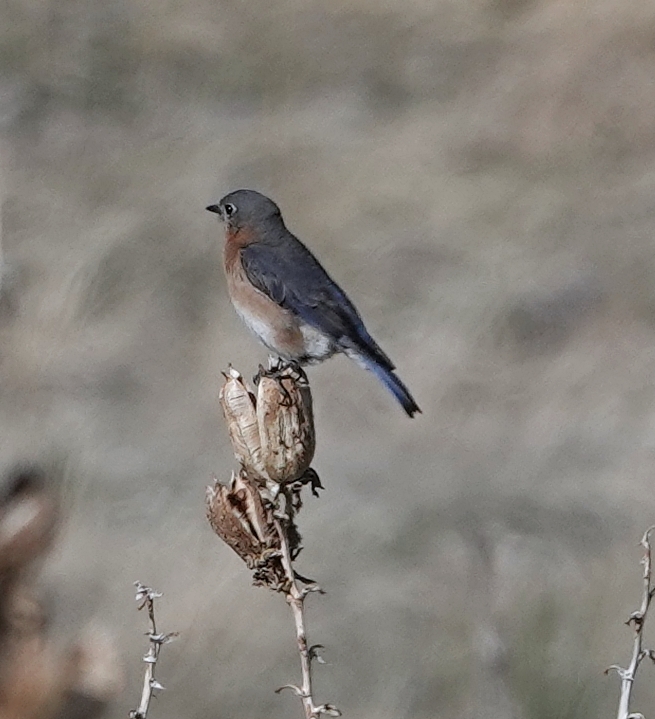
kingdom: Animalia
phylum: Chordata
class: Aves
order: Passeriformes
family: Turdidae
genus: Sialia
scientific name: Sialia sialis
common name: Eastern bluebird
